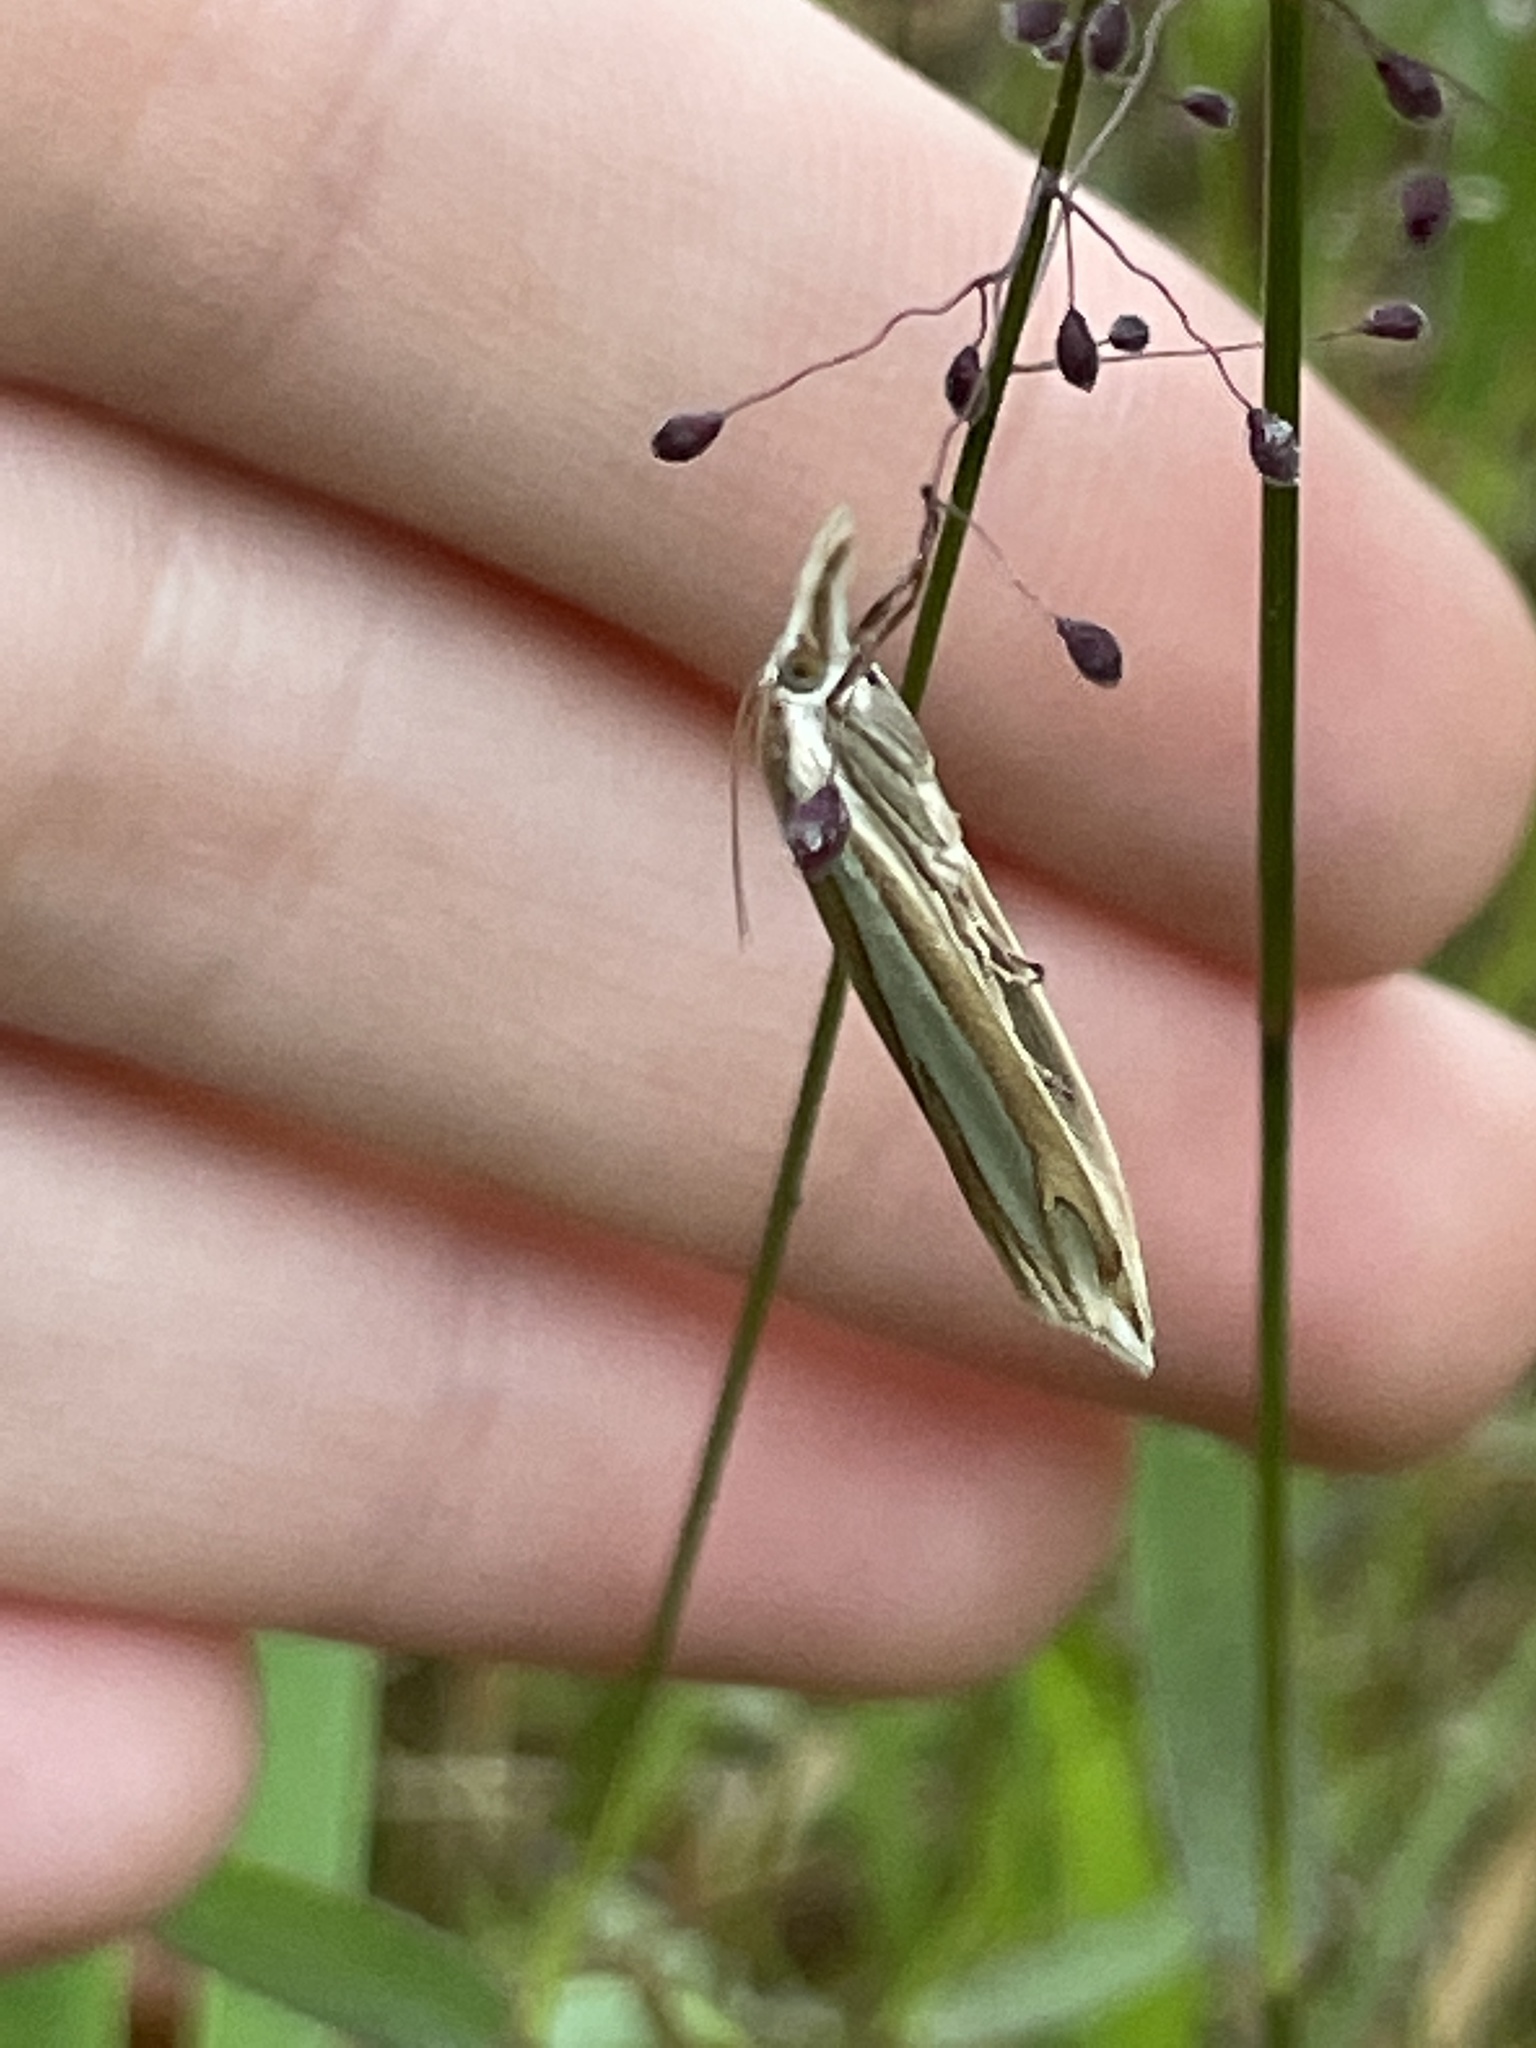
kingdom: Animalia
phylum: Arthropoda
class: Insecta
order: Lepidoptera
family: Crambidae
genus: Crambus
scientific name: Crambus satrapellus
